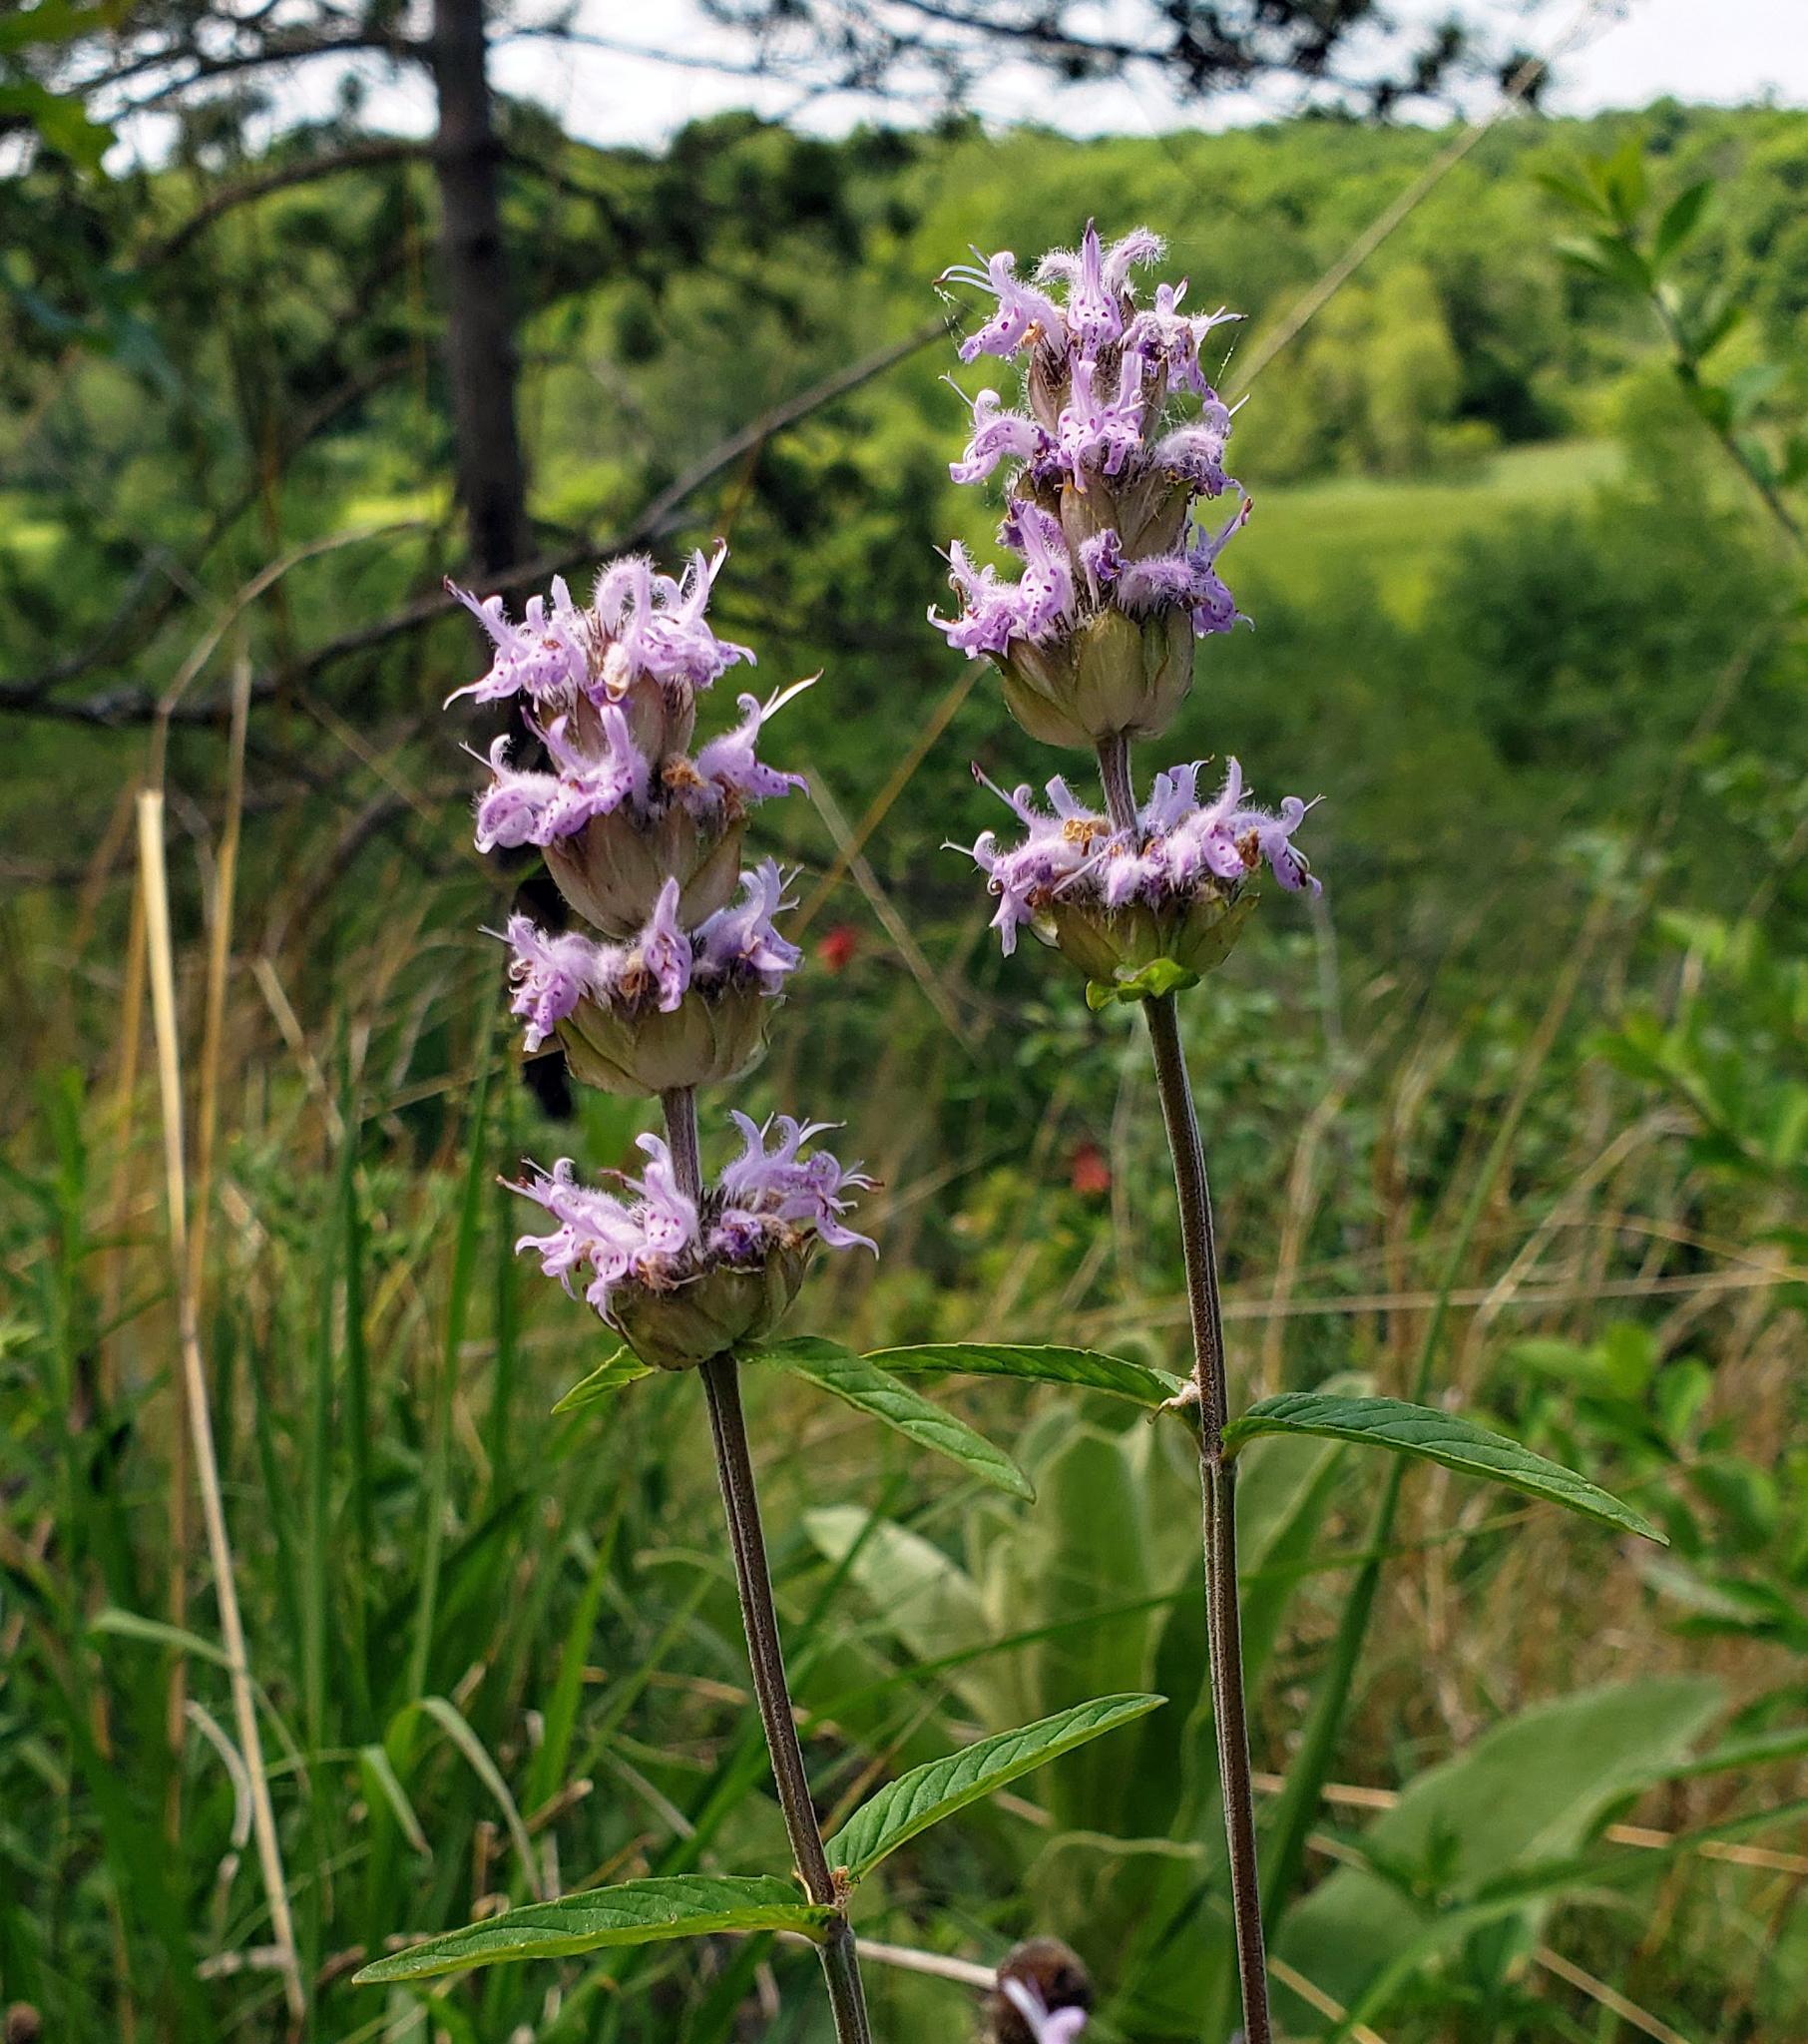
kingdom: Plantae
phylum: Tracheophyta
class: Magnoliopsida
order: Lamiales
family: Lamiaceae
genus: Blephilia
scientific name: Blephilia ciliata
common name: Downy blephilia
